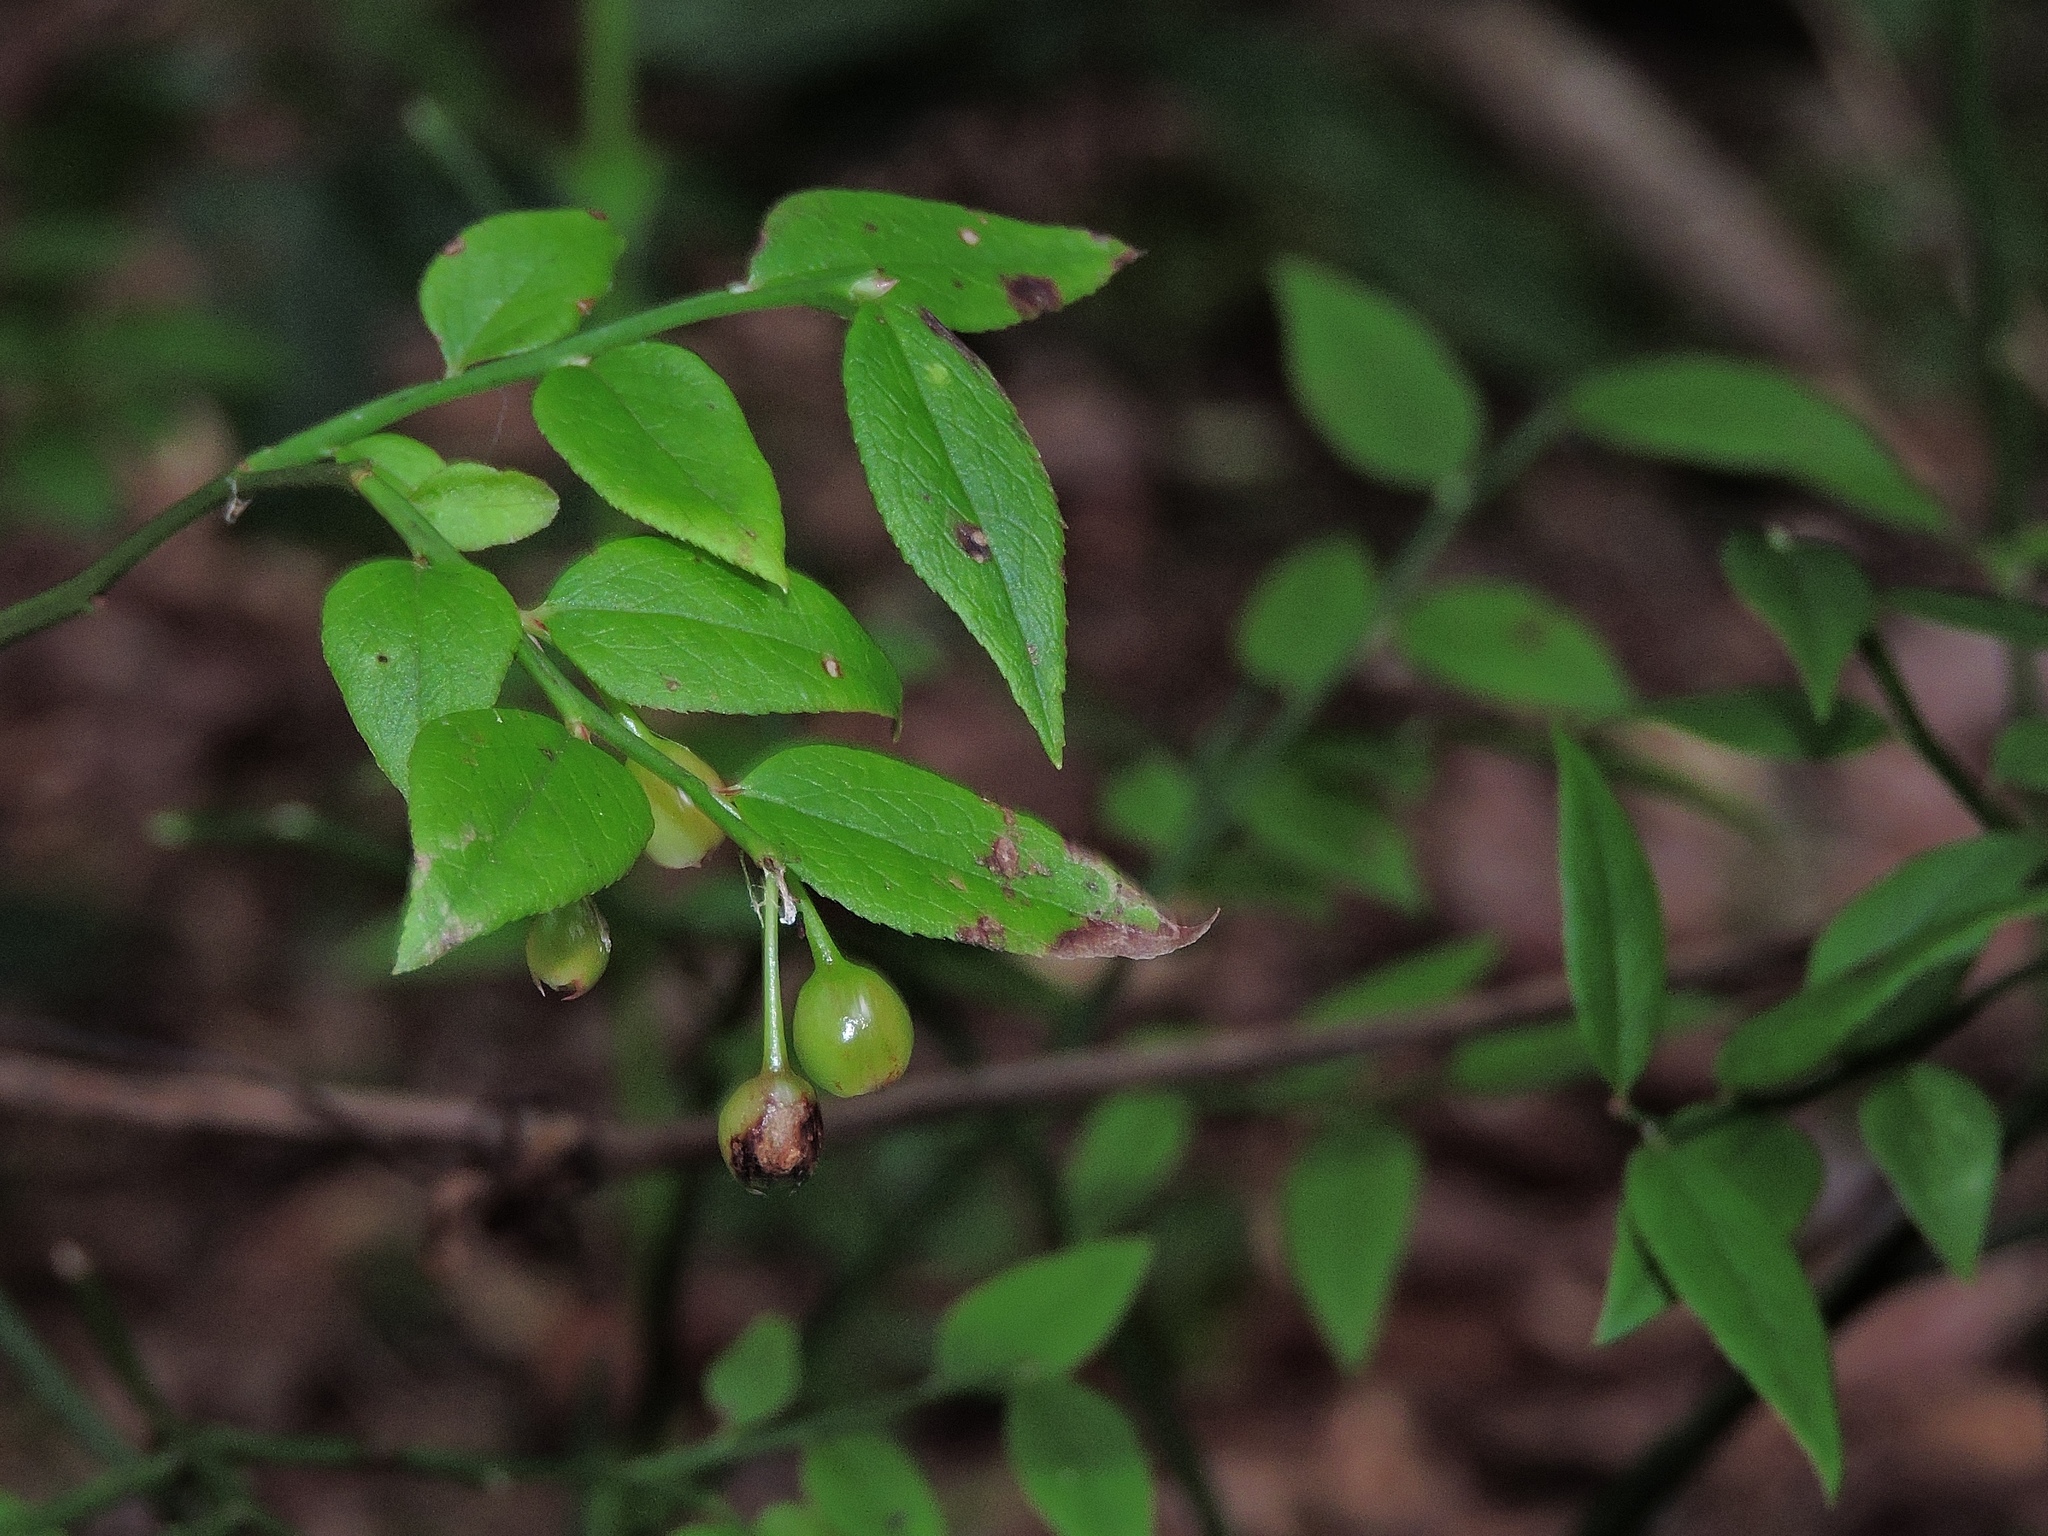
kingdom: Plantae
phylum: Tracheophyta
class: Magnoliopsida
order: Ericales
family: Ericaceae
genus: Vaccinium
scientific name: Vaccinium japonicum
